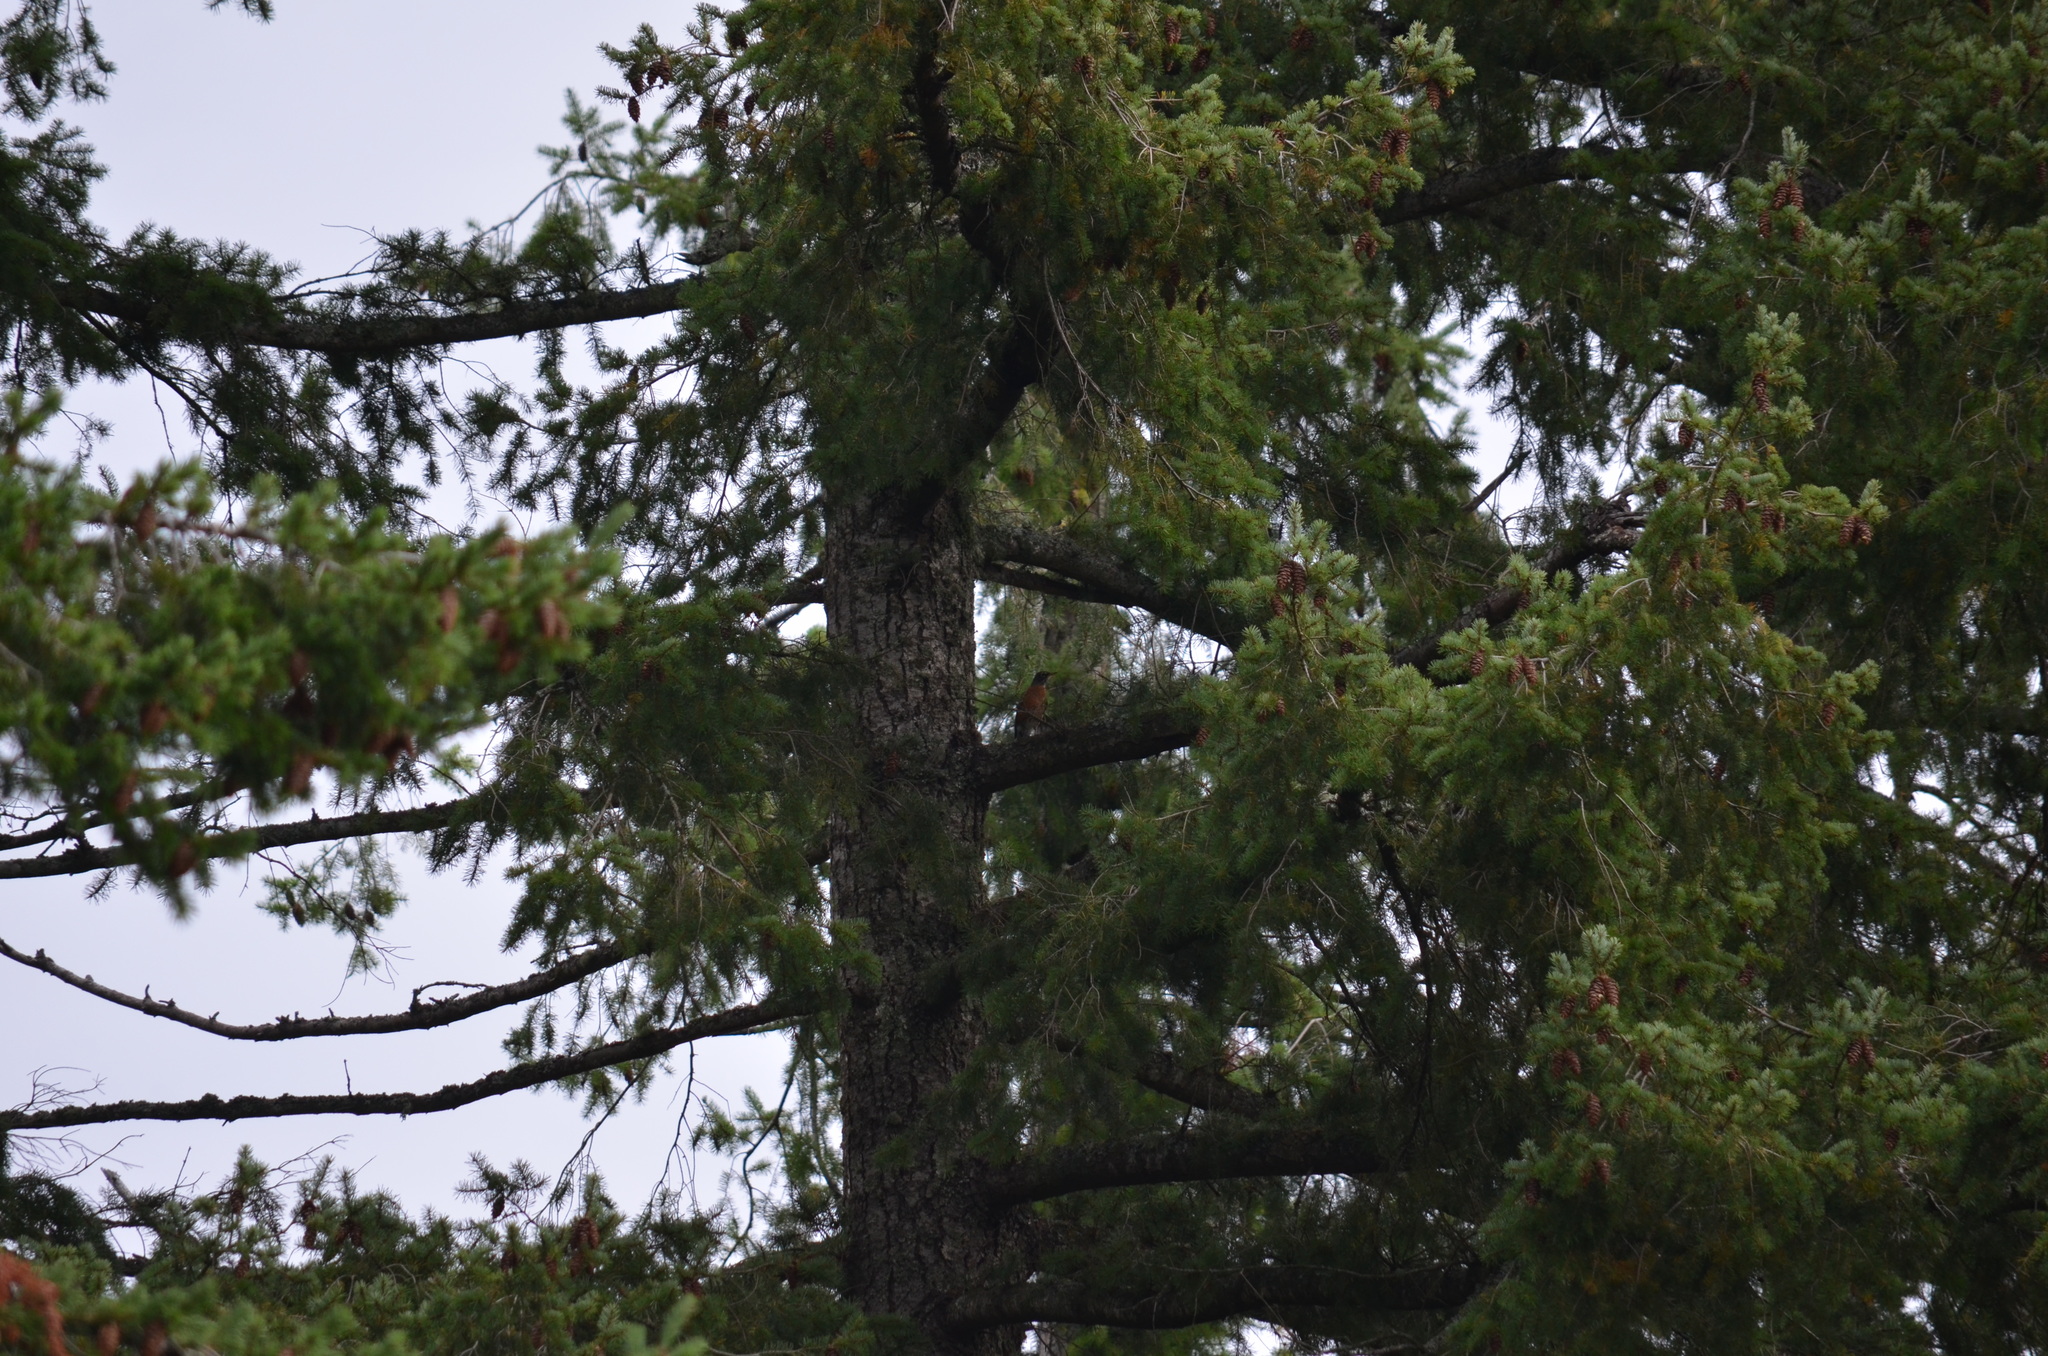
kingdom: Animalia
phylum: Chordata
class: Aves
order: Passeriformes
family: Turdidae
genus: Turdus
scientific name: Turdus migratorius
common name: American robin
